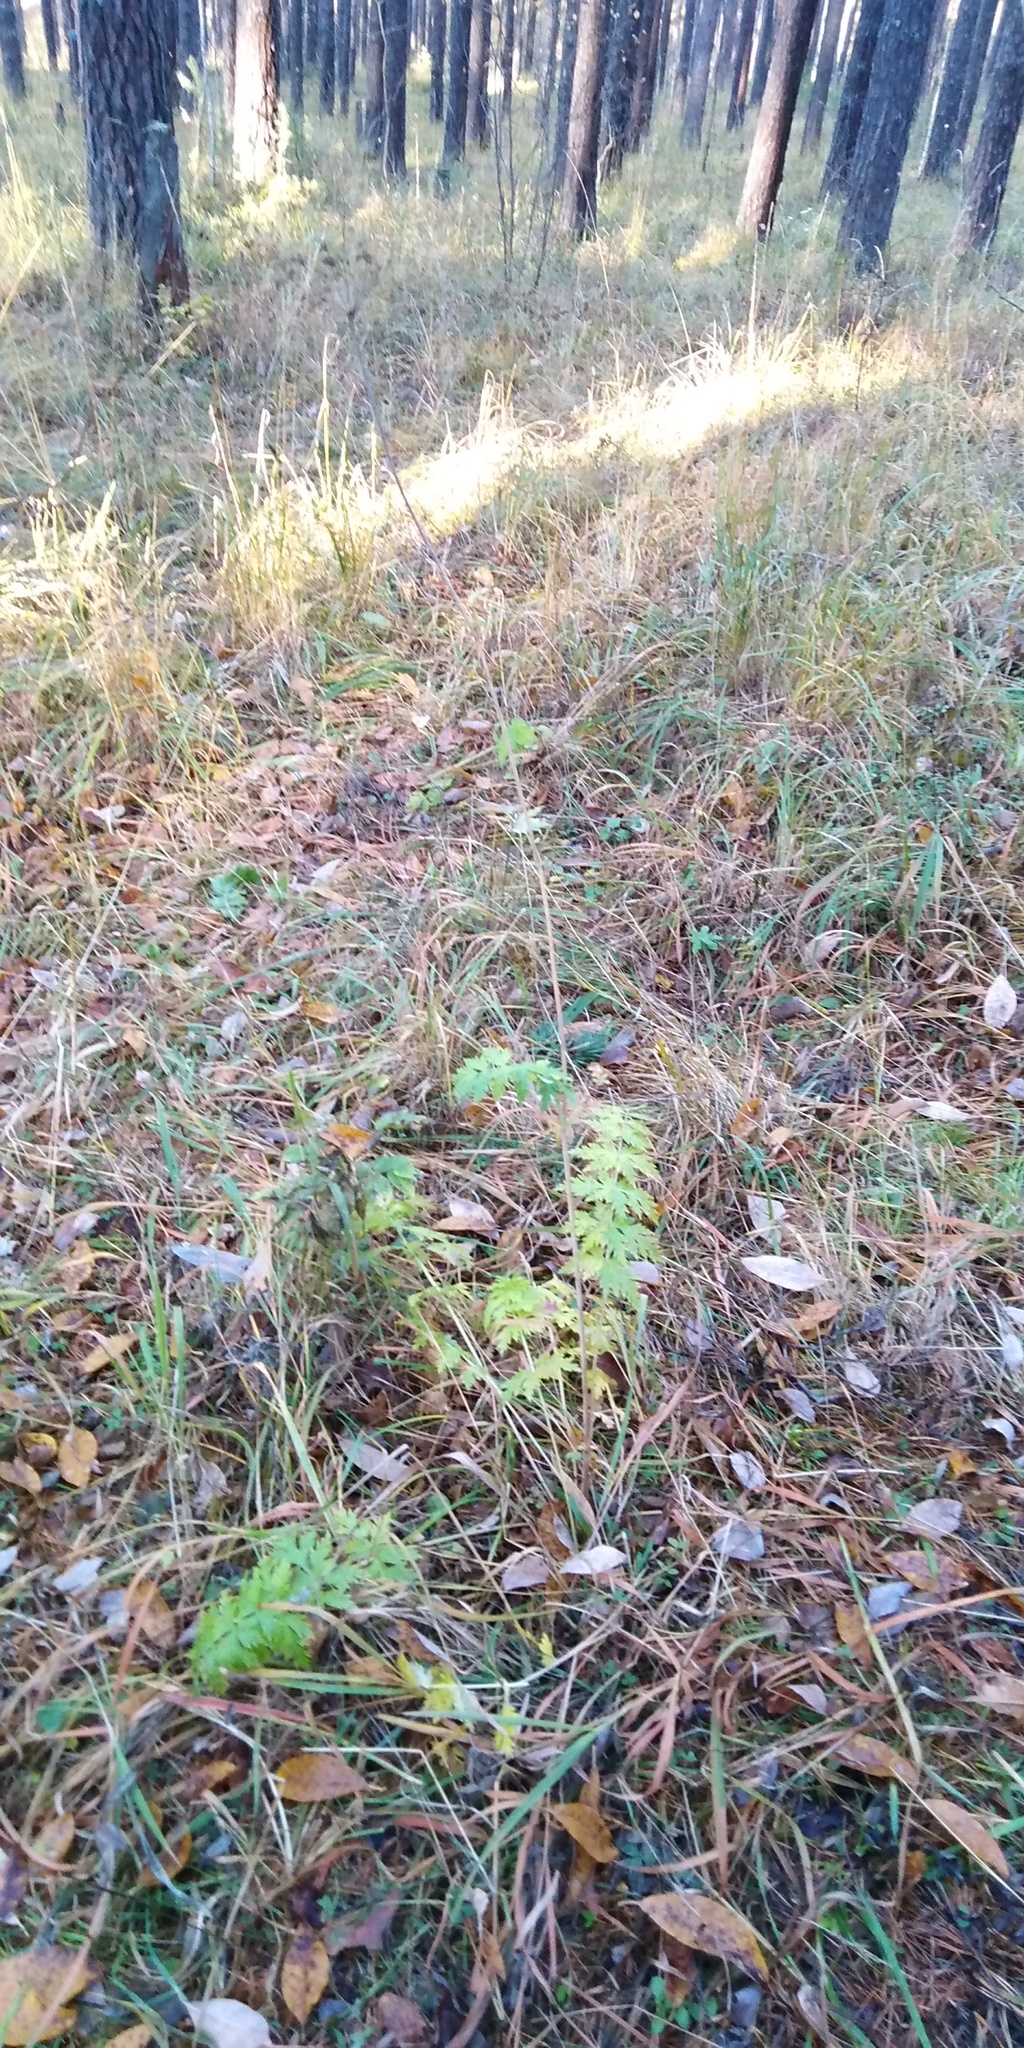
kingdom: Plantae
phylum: Tracheophyta
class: Magnoliopsida
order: Apiales
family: Apiaceae
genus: Seseli
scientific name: Seseli krylovii
